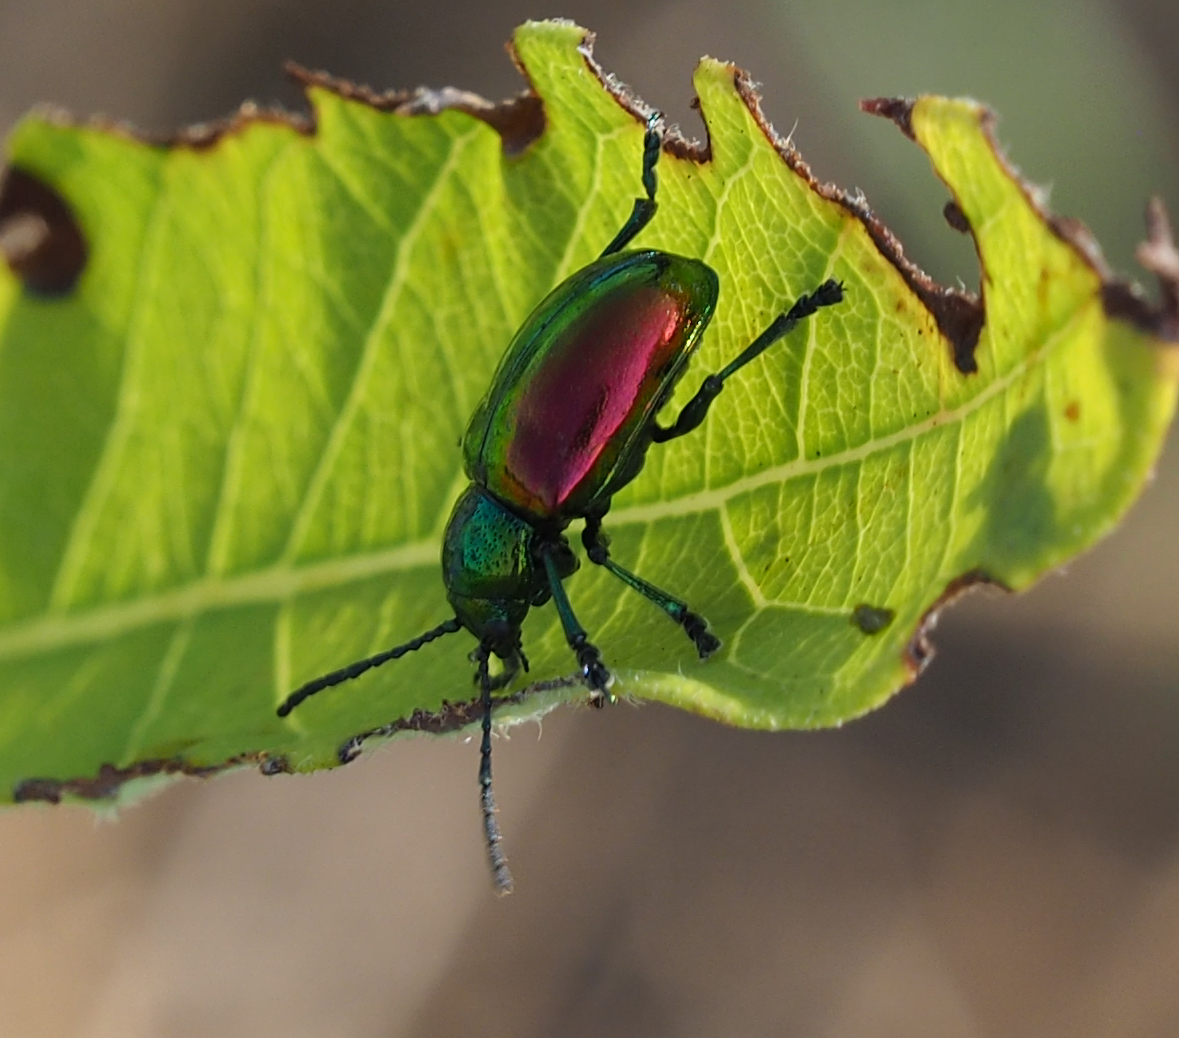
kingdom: Animalia
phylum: Arthropoda
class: Insecta
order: Coleoptera
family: Chrysomelidae
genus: Chrysochus
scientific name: Chrysochus auratus
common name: Dogbane leaf beetle
